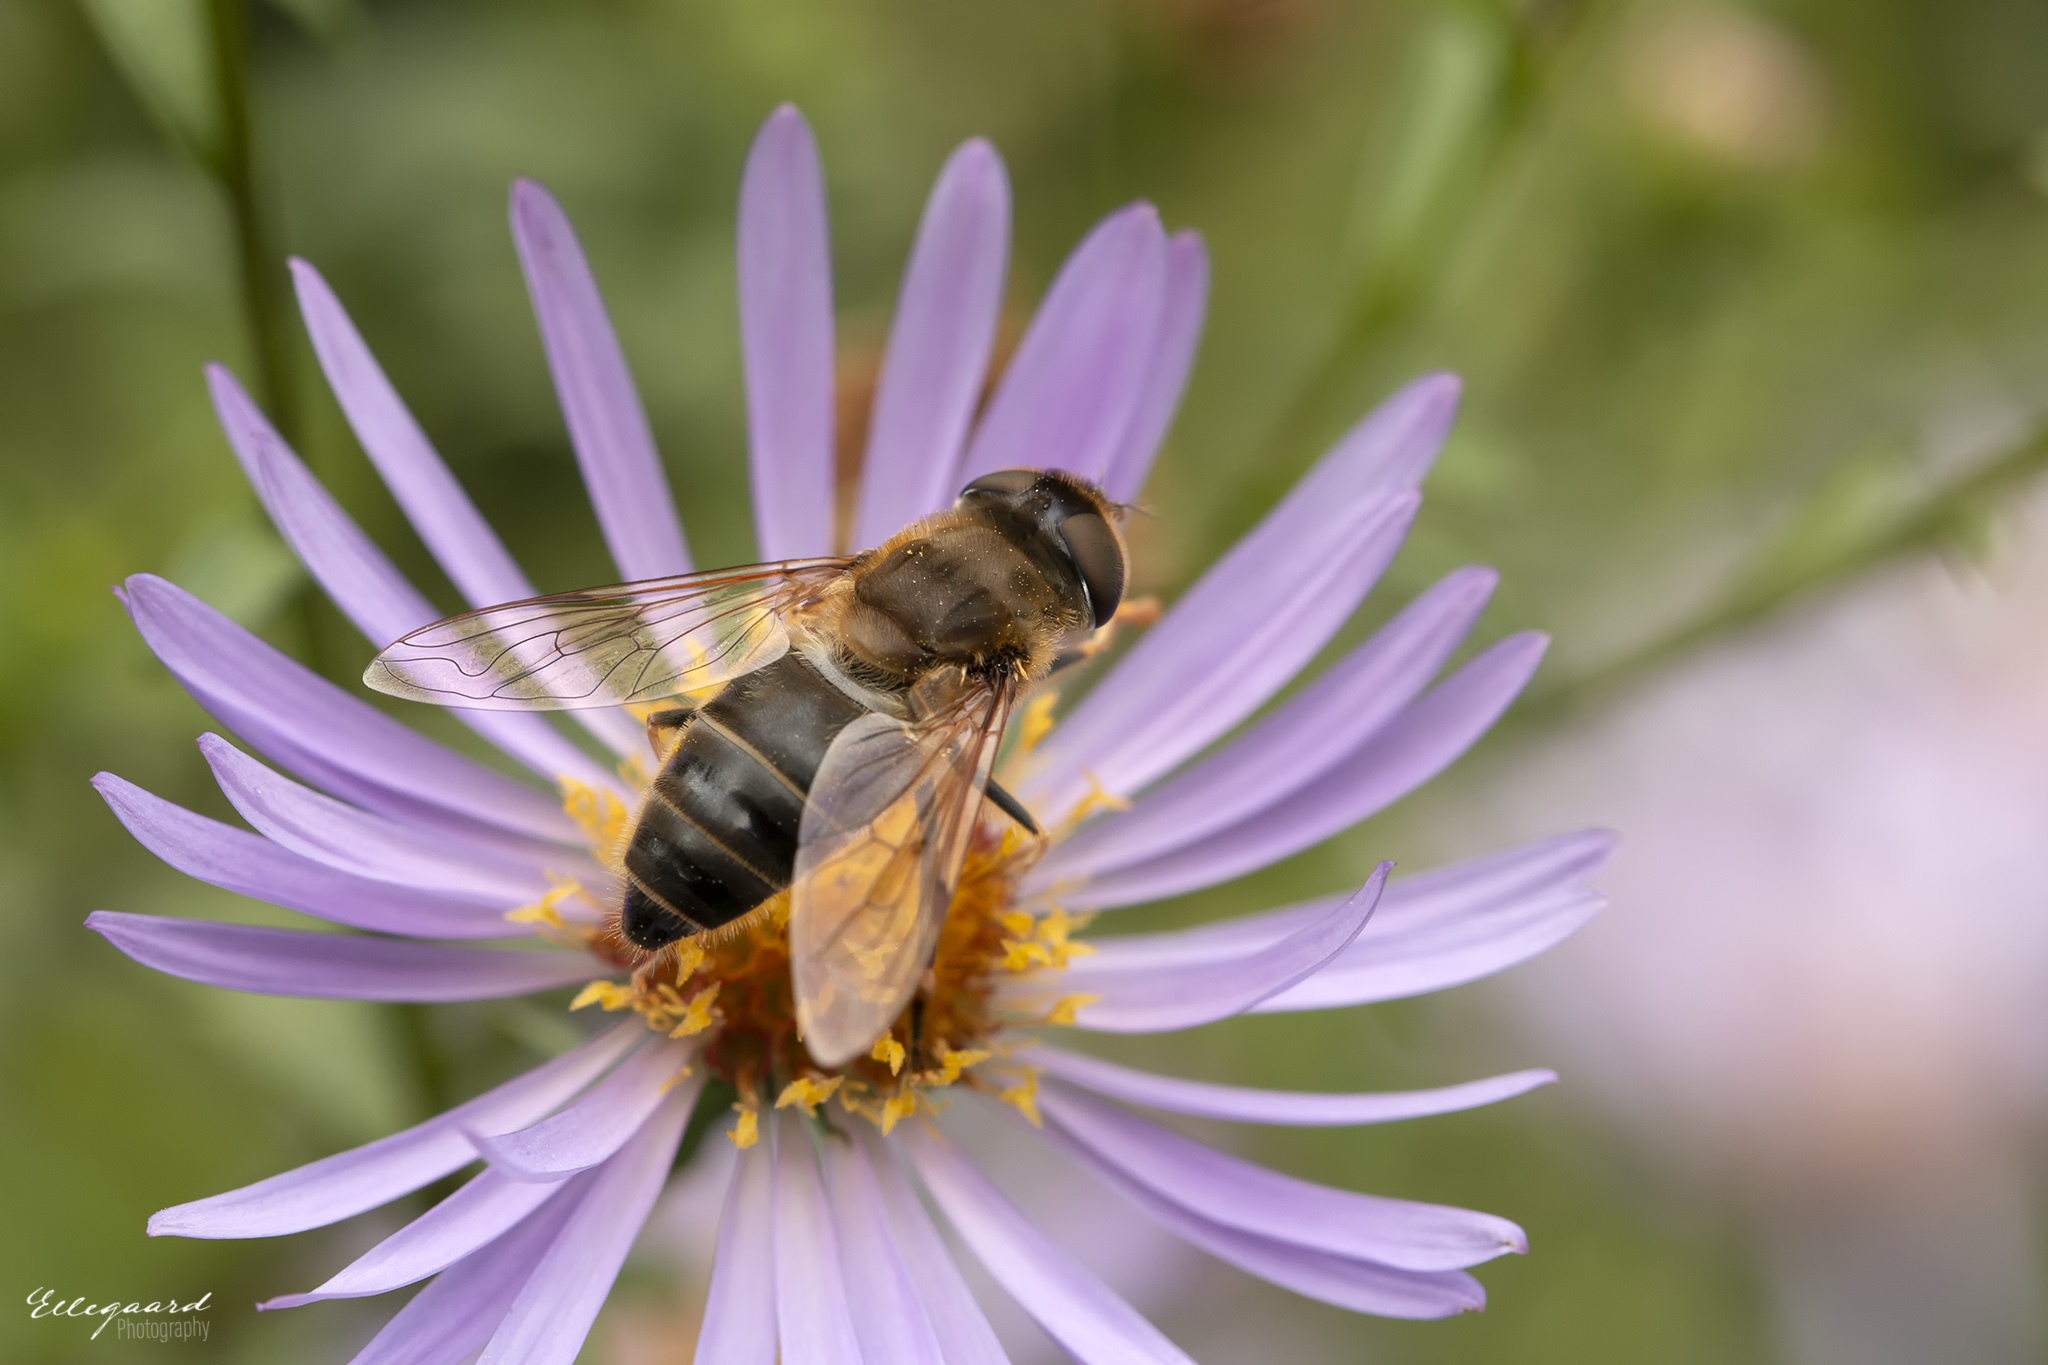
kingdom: Animalia
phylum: Arthropoda
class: Insecta
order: Diptera
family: Syrphidae
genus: Eristalis
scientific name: Eristalis pertinax
